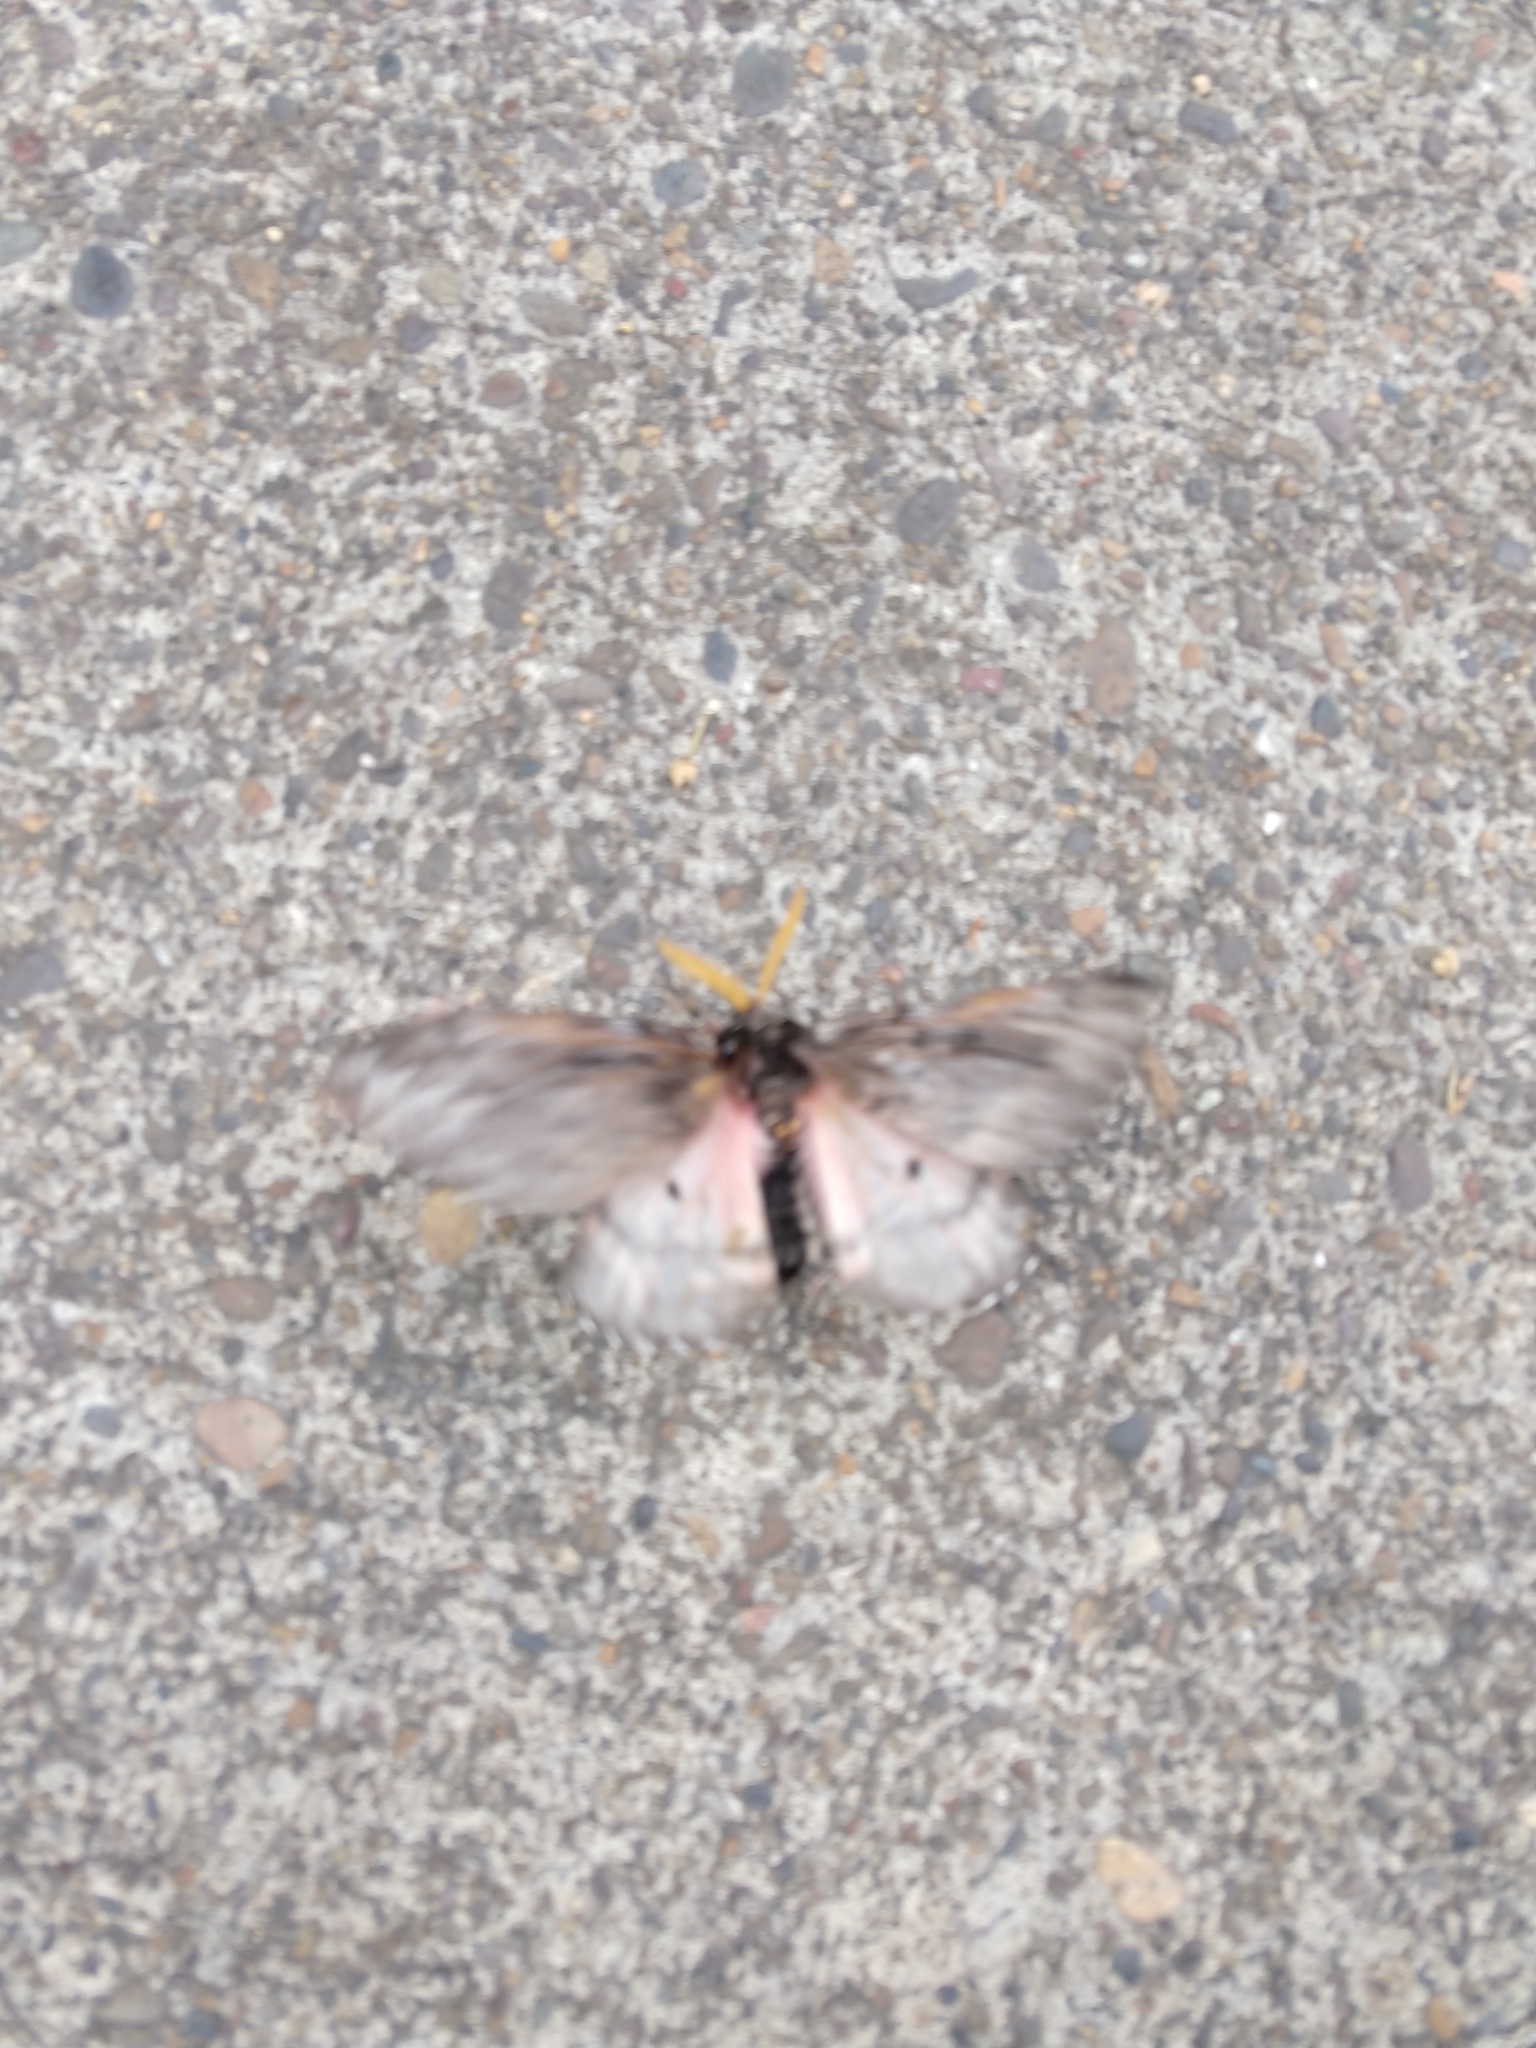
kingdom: Animalia
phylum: Arthropoda
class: Insecta
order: Lepidoptera
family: Saturniidae
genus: Coloradia
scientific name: Coloradia pandora
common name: Pandora pinemoth
